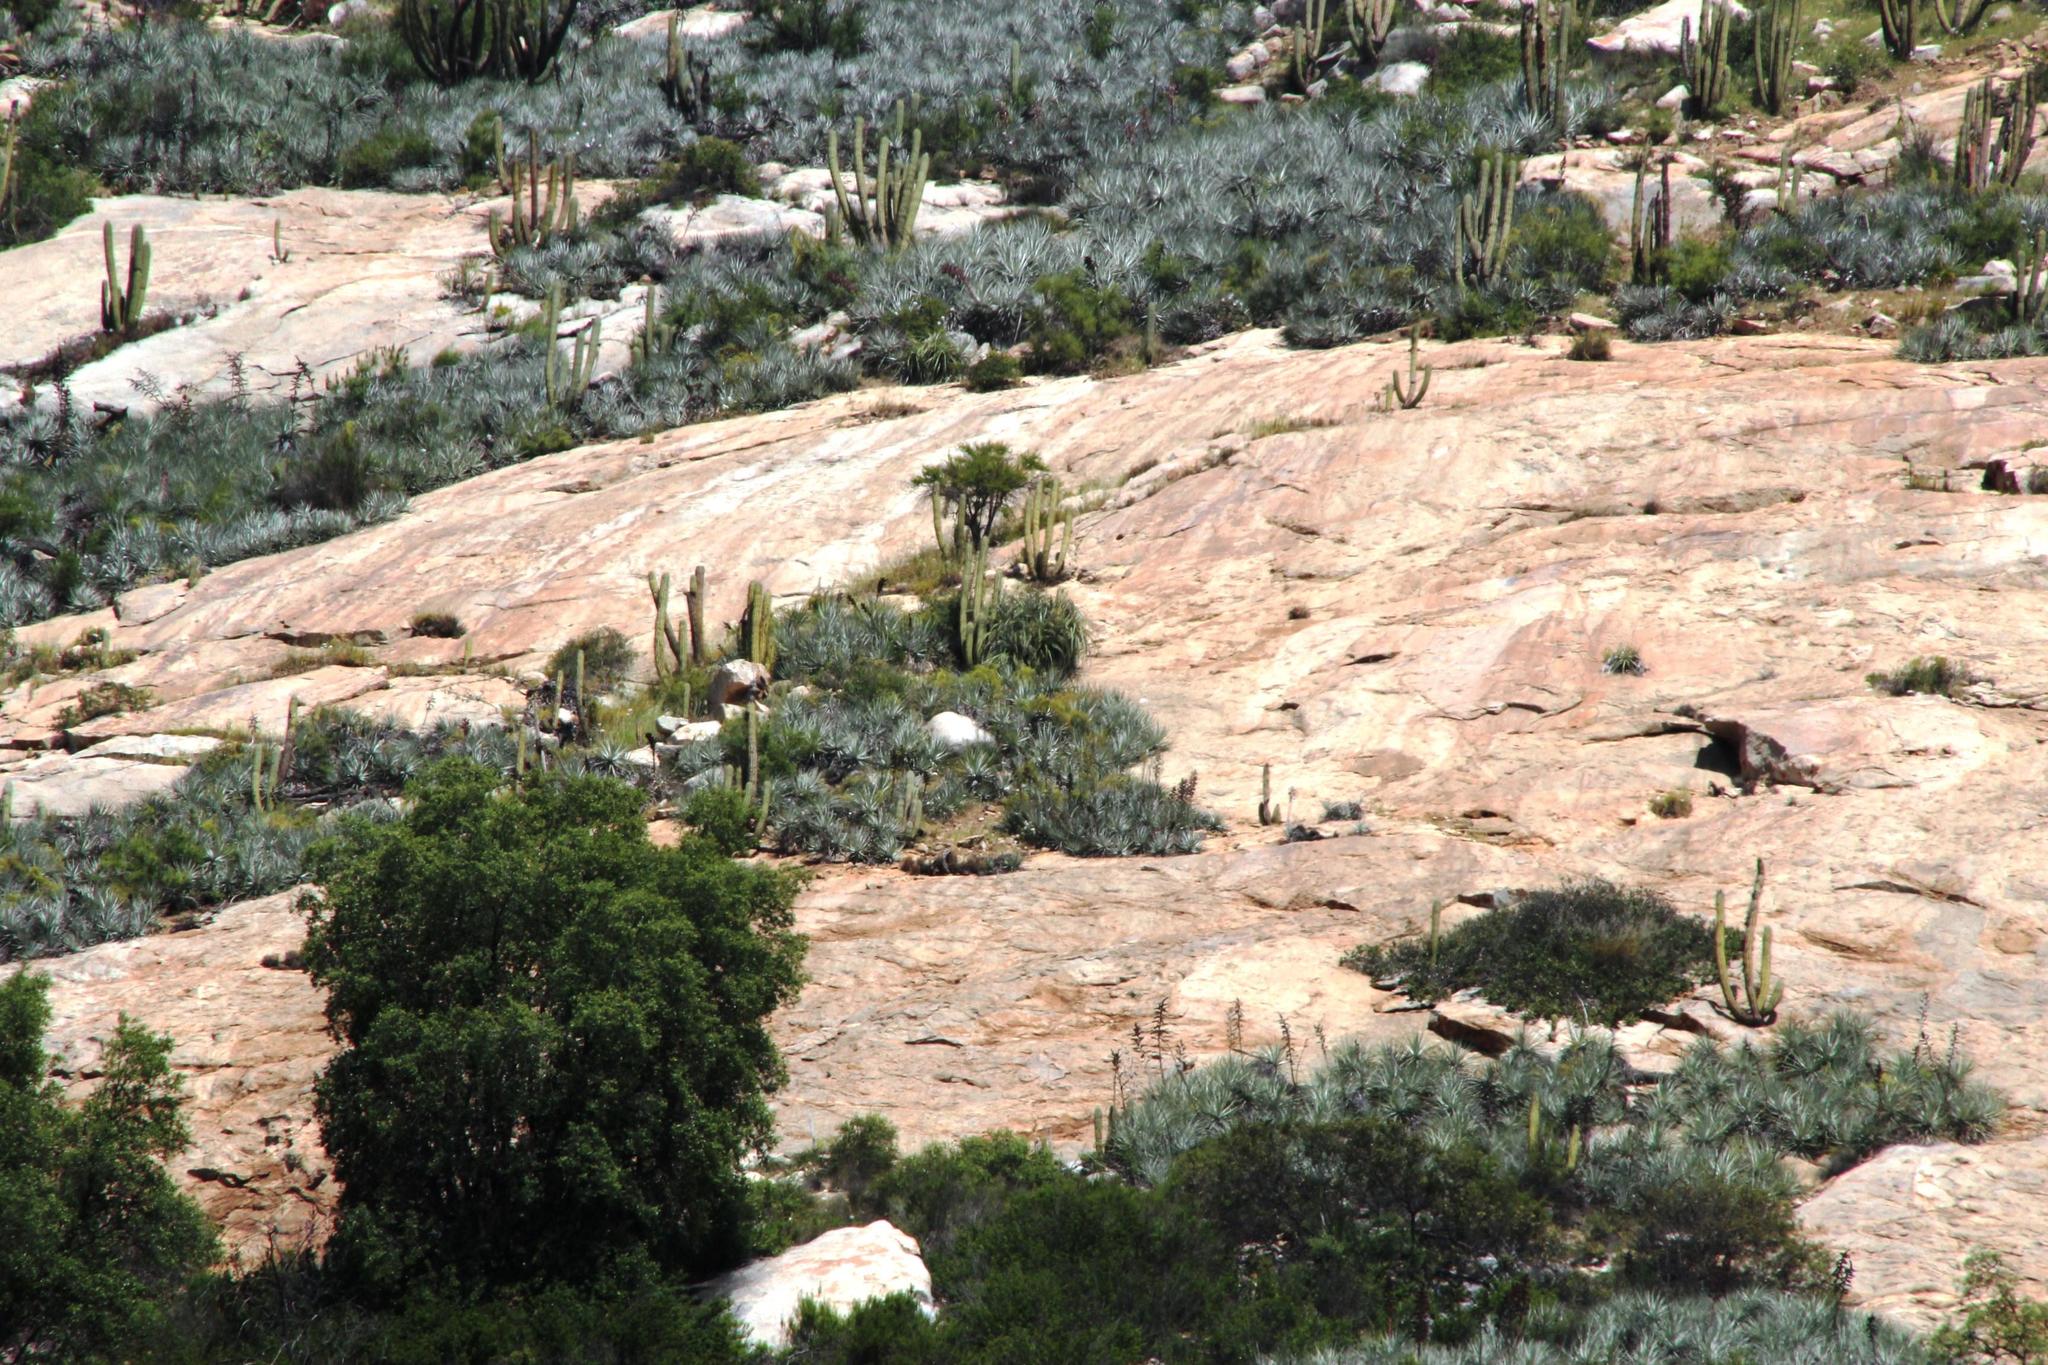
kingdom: Plantae
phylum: Tracheophyta
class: Liliopsida
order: Poales
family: Bromeliaceae
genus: Puya
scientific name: Puya coerulea
